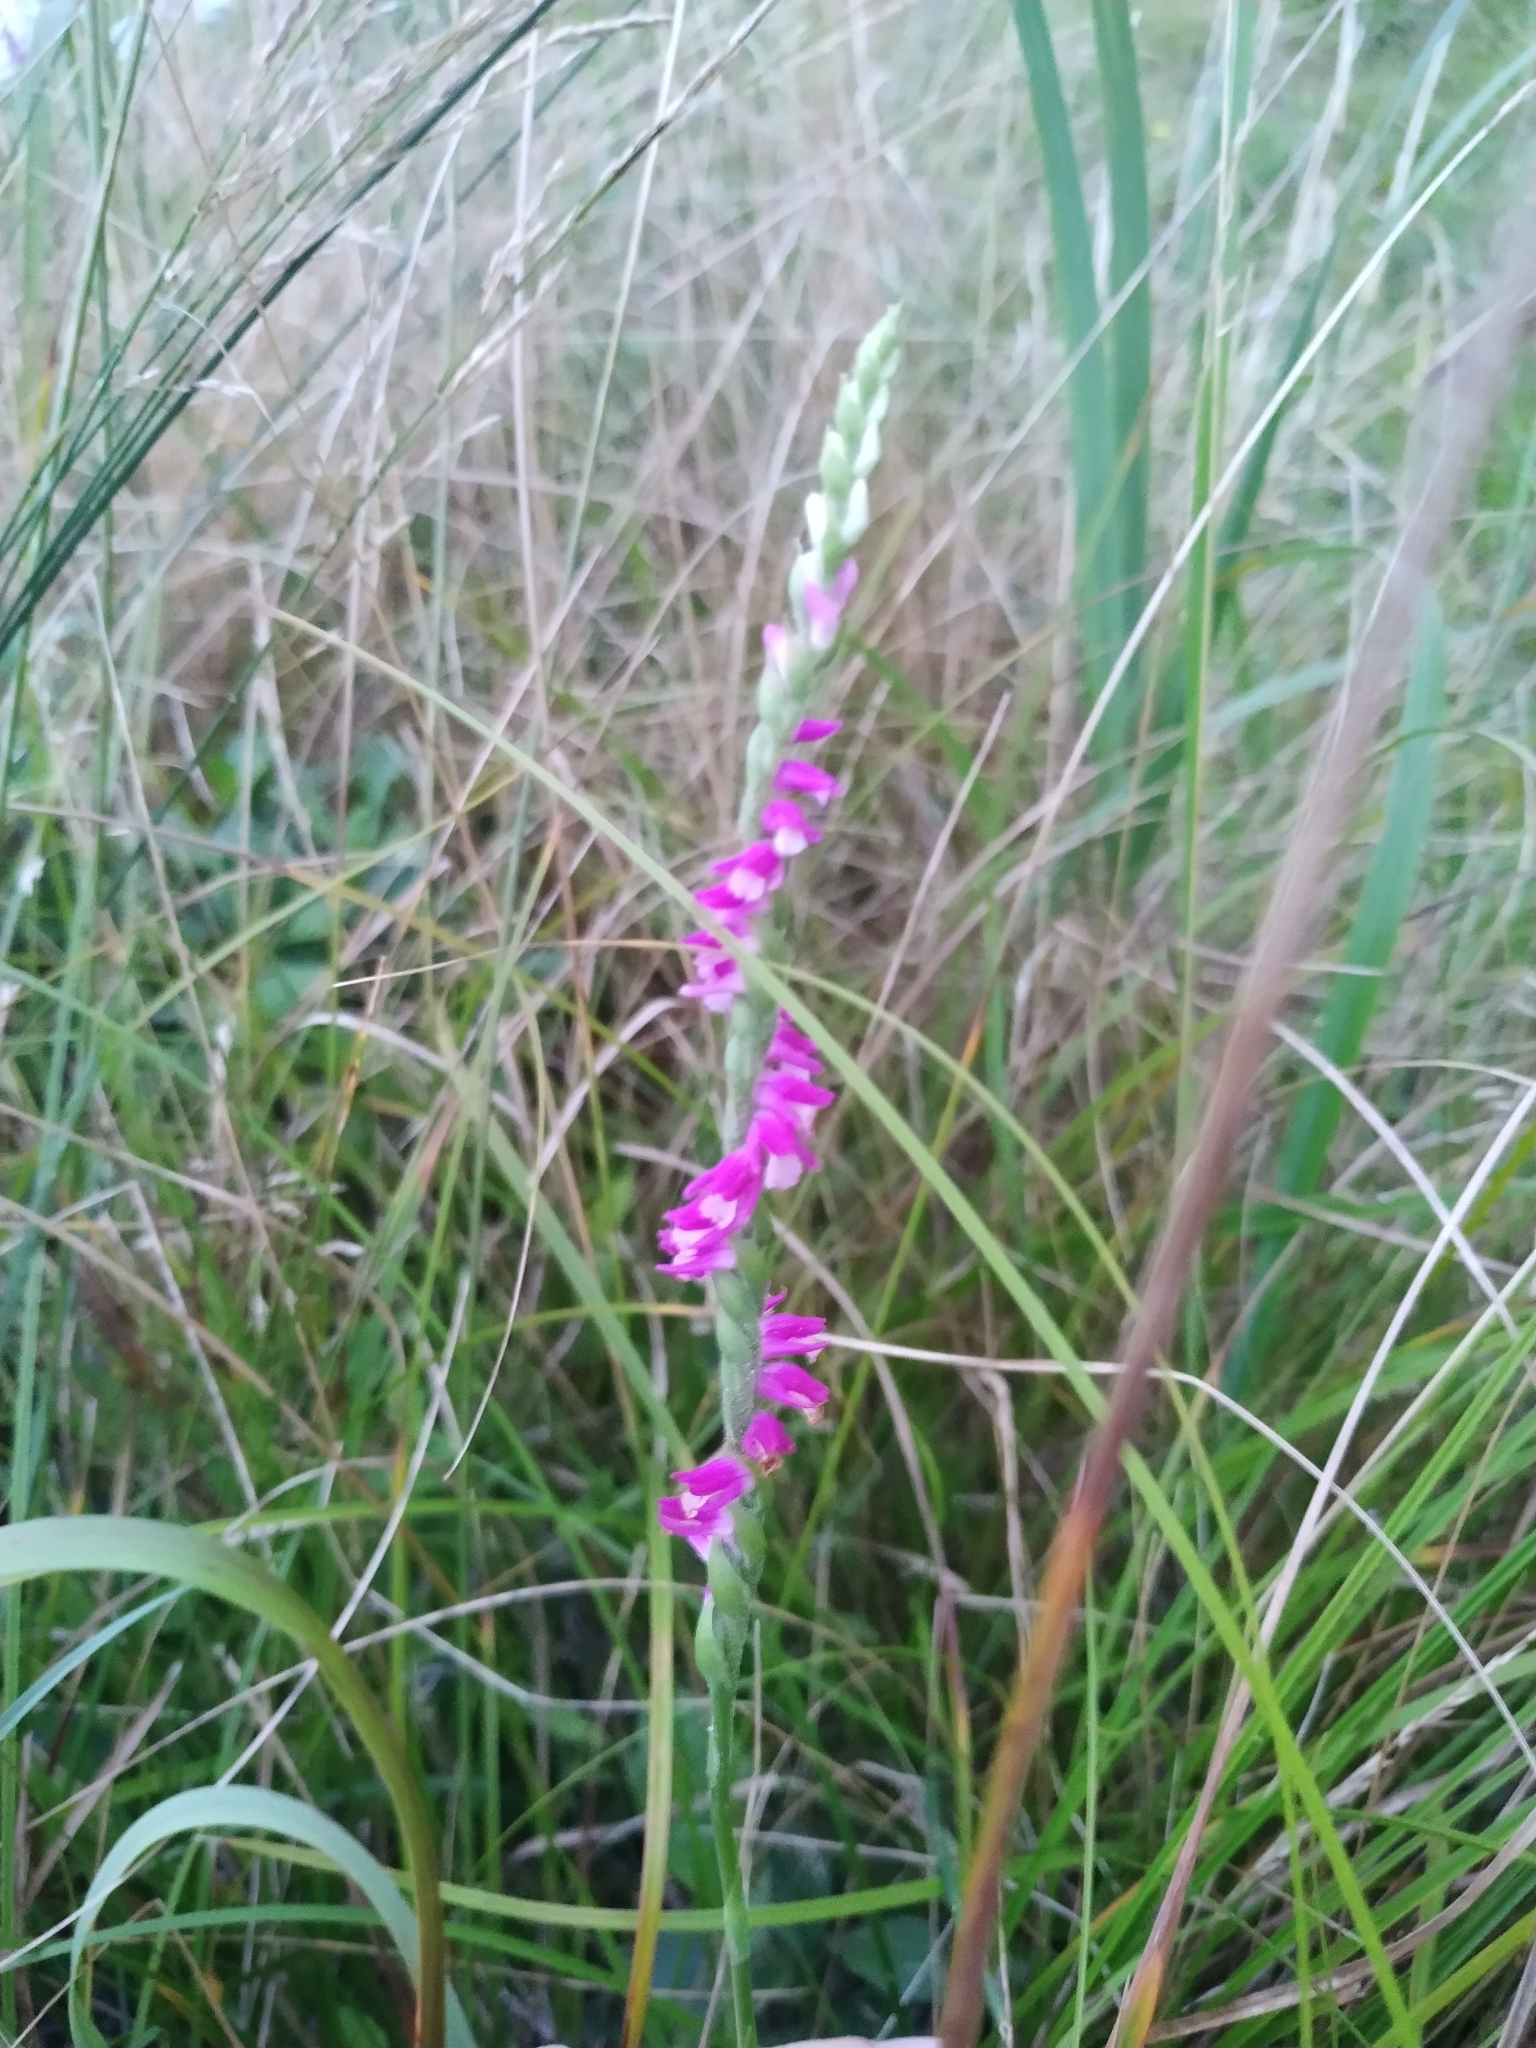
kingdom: Plantae
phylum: Tracheophyta
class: Liliopsida
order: Asparagales
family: Orchidaceae
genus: Spiranthes
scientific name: Spiranthes australis
